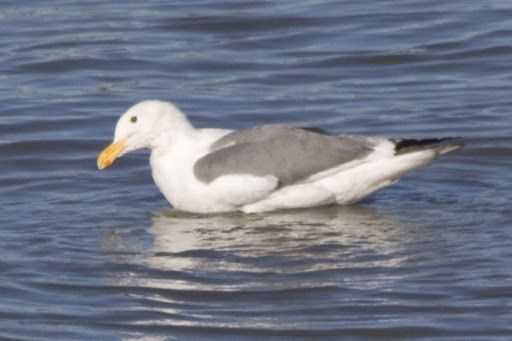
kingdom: Animalia
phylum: Chordata
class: Aves
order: Charadriiformes
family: Laridae
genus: Larus
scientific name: Larus occidentalis
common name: Western gull
